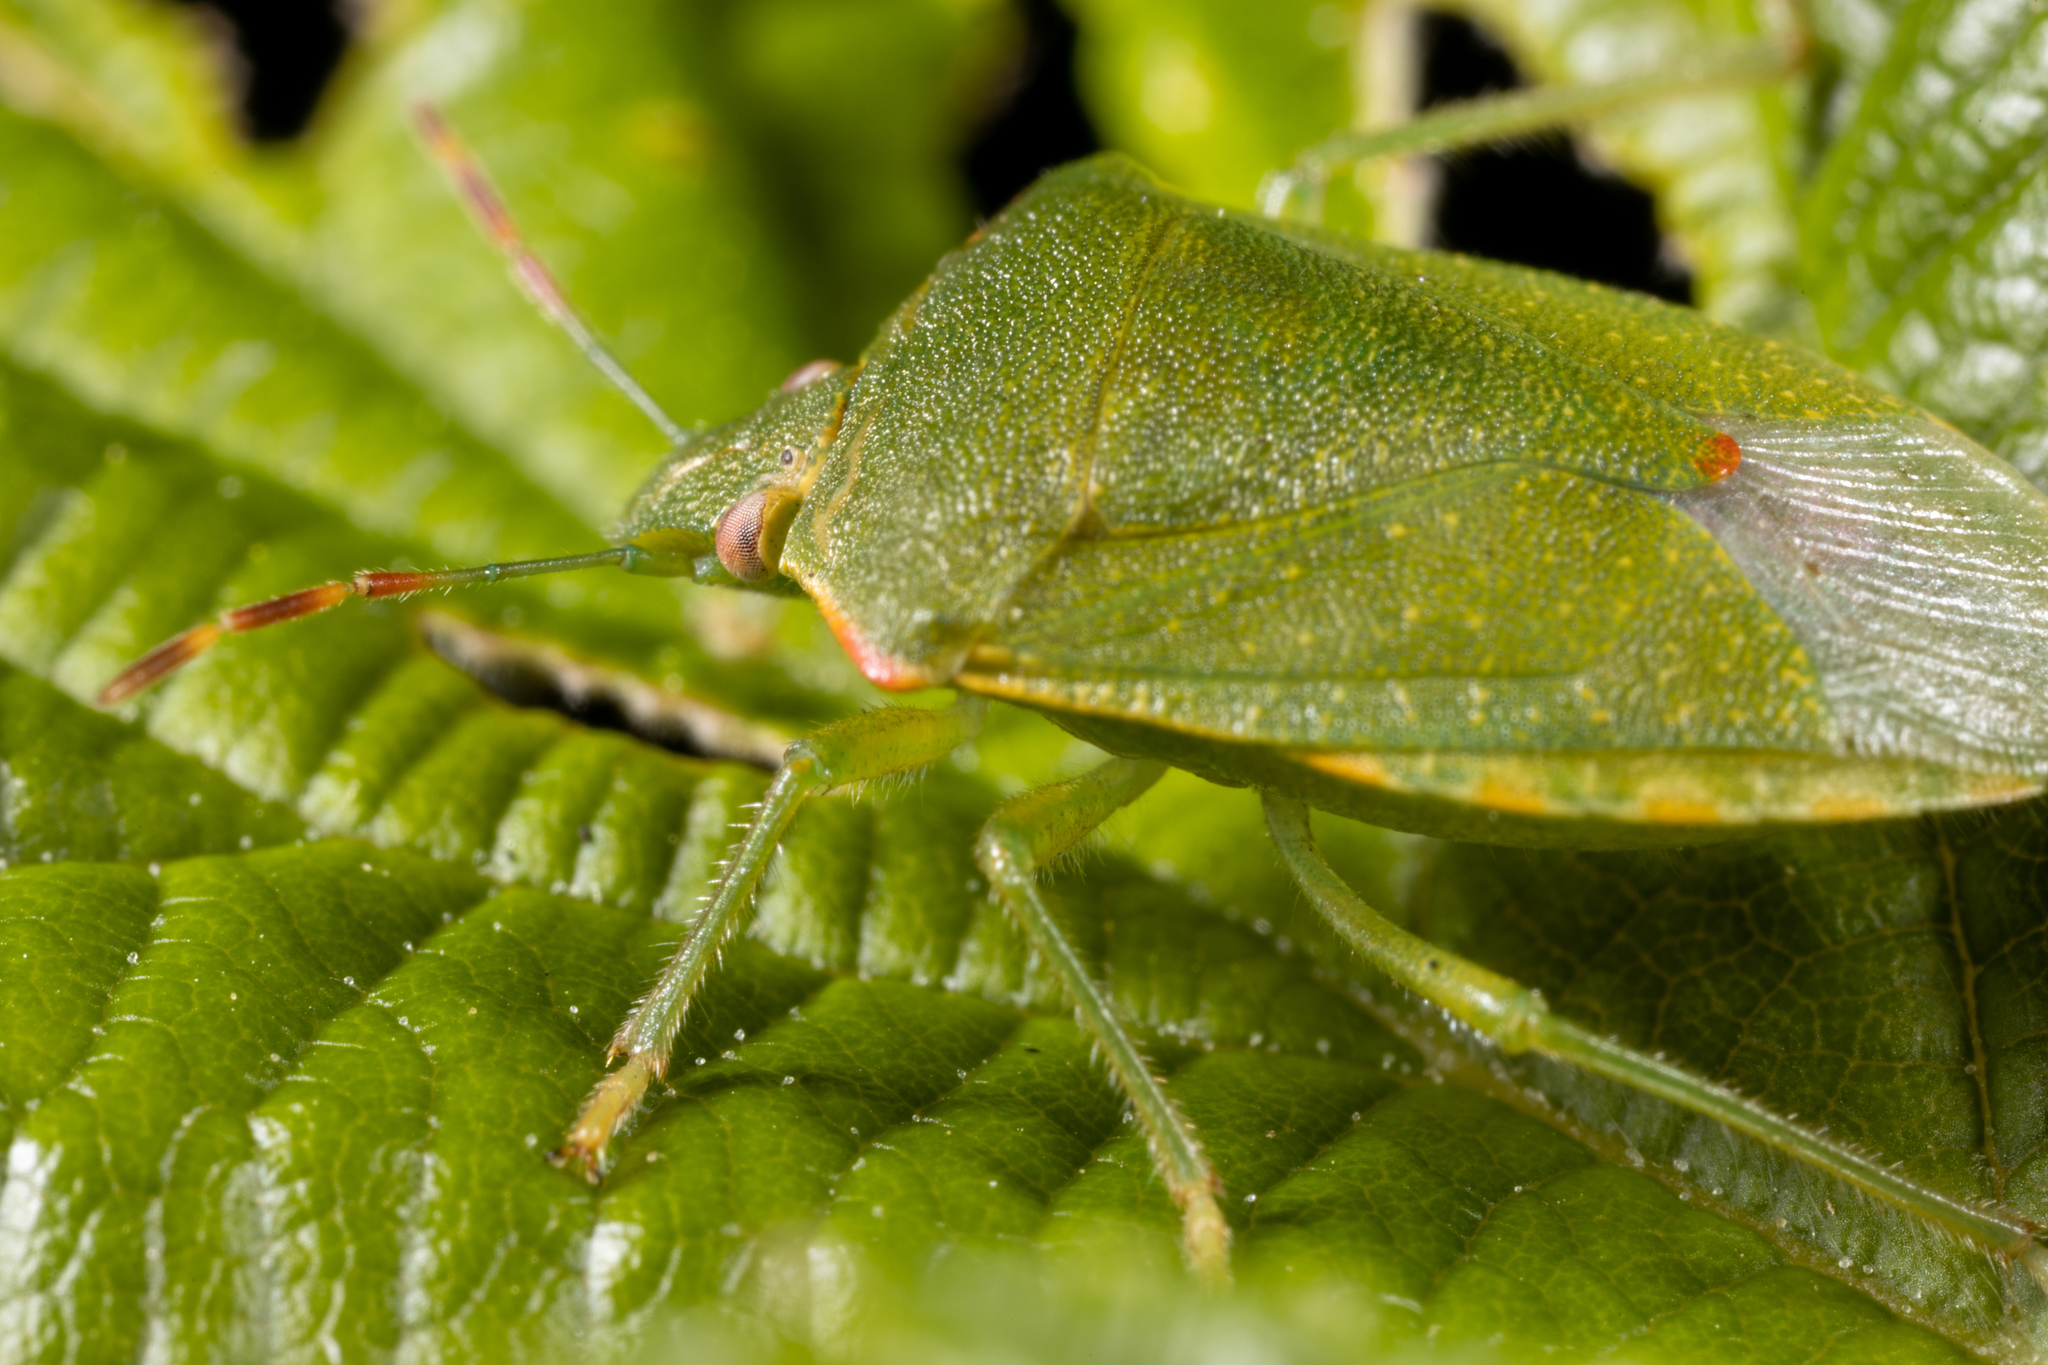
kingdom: Animalia
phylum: Arthropoda
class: Insecta
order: Hemiptera
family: Pentatomidae
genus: Thyanta
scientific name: Thyanta custator
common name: Stink bug
